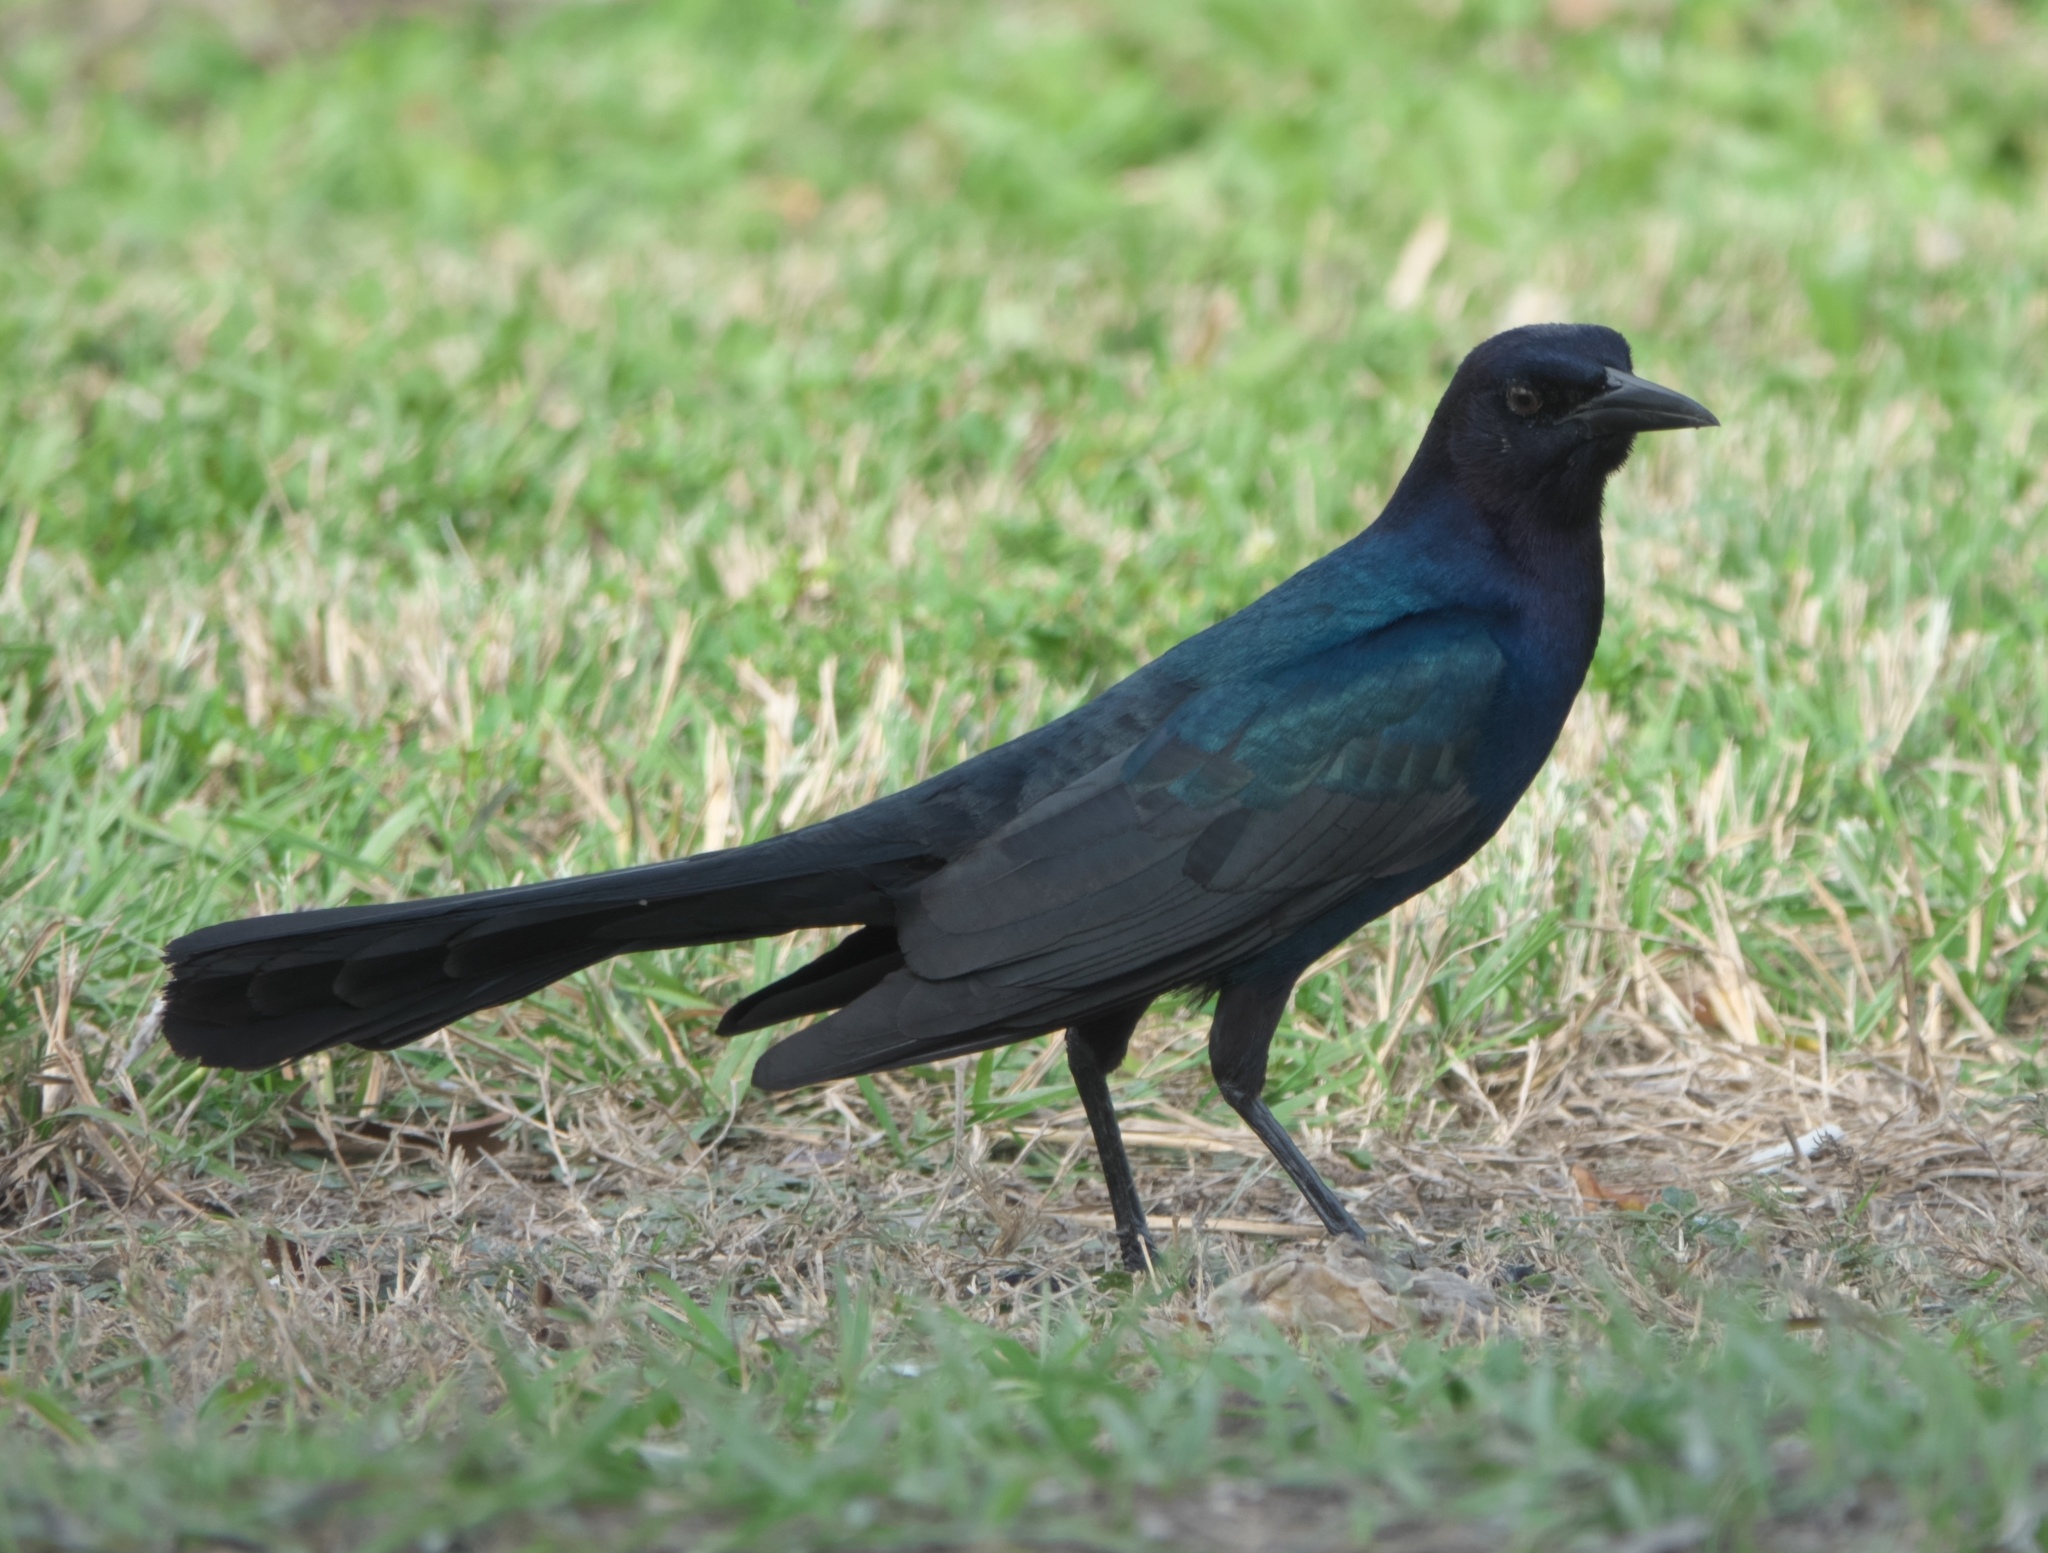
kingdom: Animalia
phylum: Chordata
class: Aves
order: Passeriformes
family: Icteridae
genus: Quiscalus
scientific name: Quiscalus major
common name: Boat-tailed grackle
